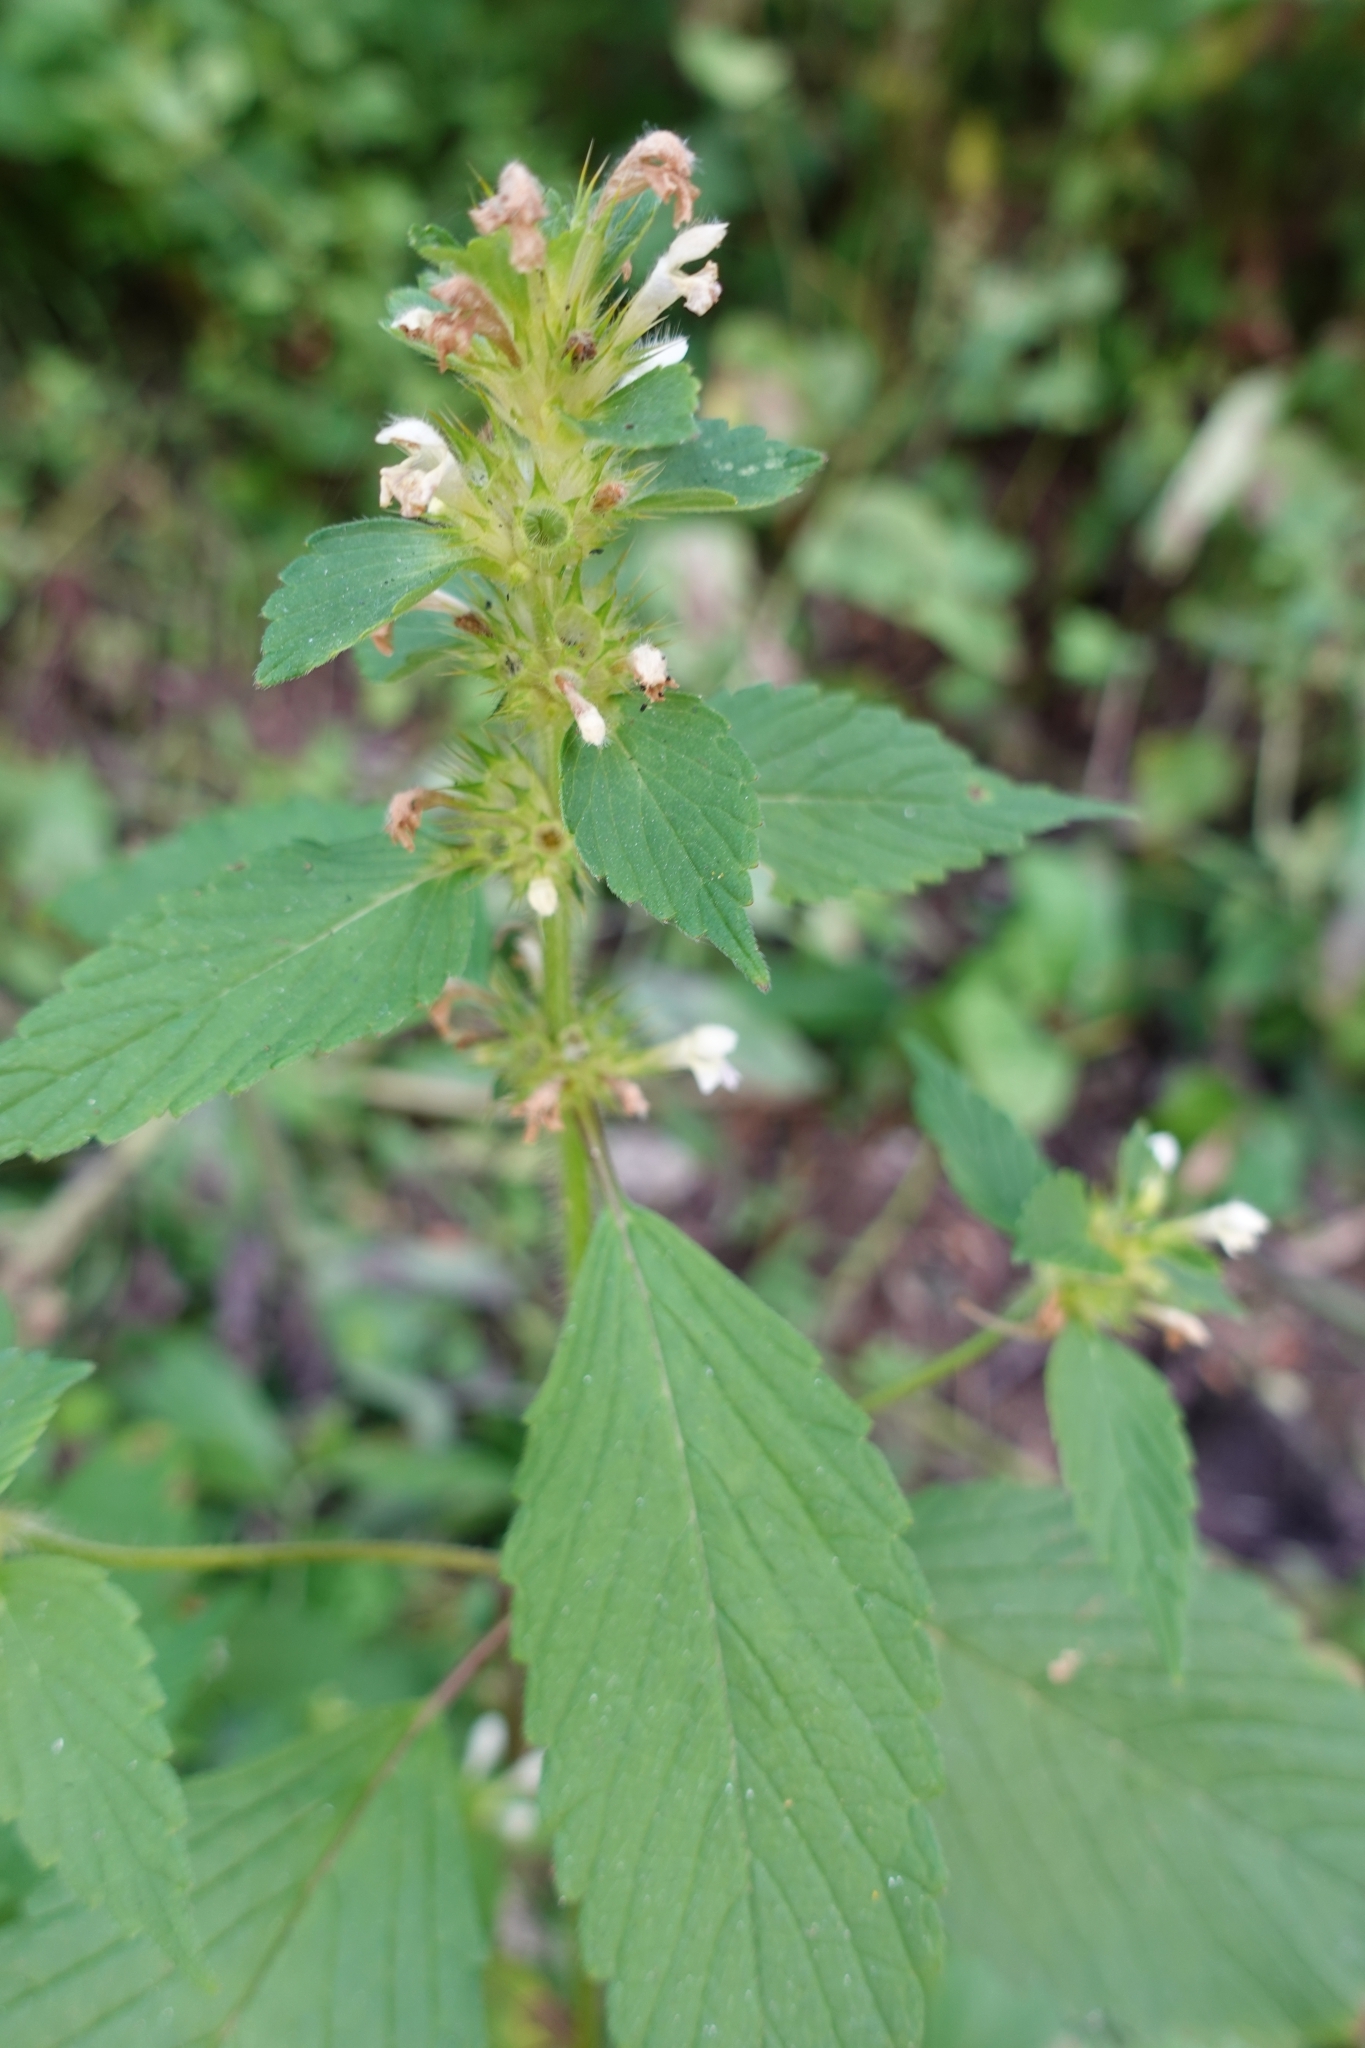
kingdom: Plantae
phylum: Tracheophyta
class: Magnoliopsida
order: Lamiales
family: Lamiaceae
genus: Galeopsis
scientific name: Galeopsis bifida
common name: Bifid hemp-nettle
